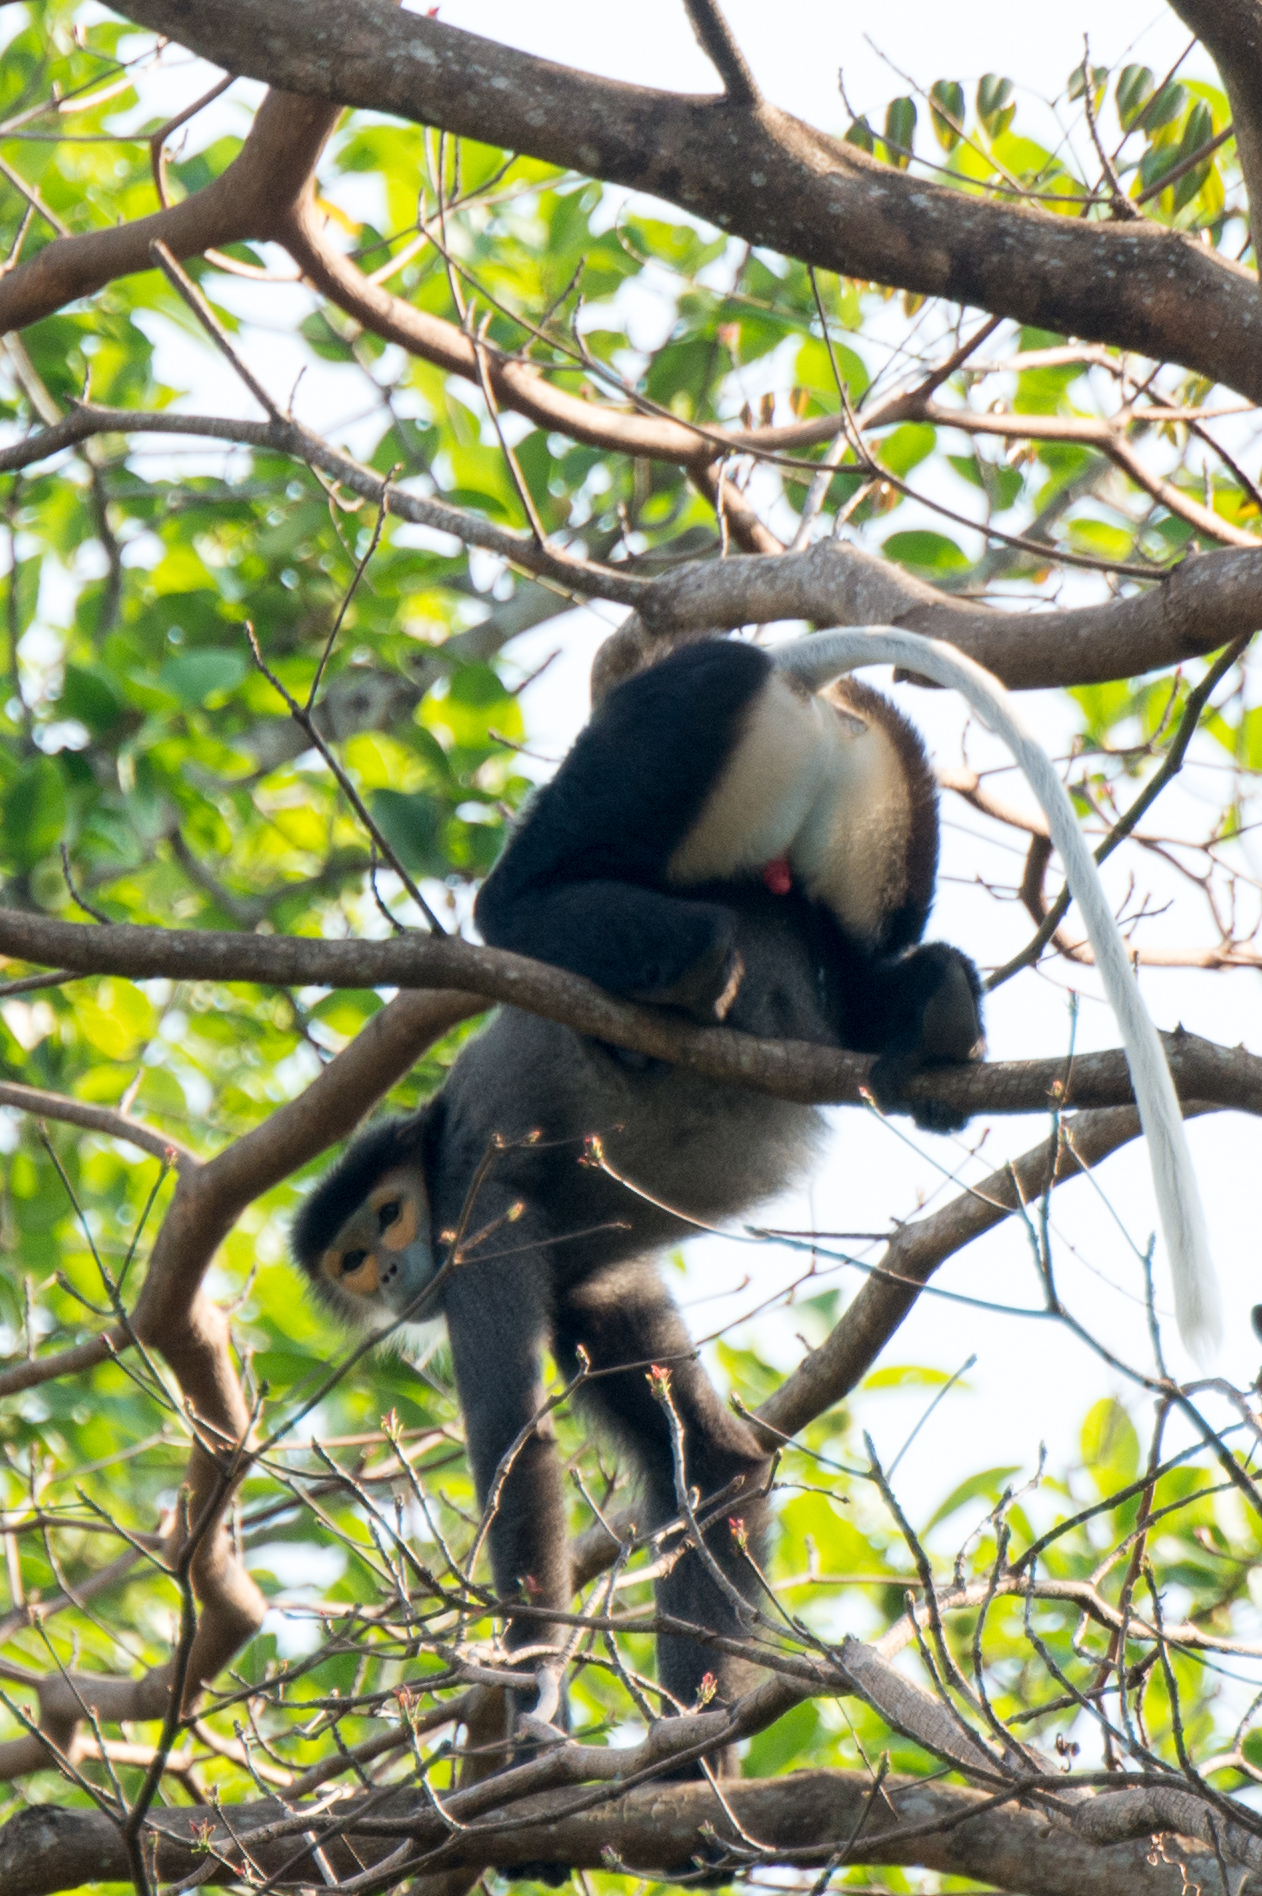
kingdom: Animalia
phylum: Chordata
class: Mammalia
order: Primates
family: Cercopithecidae
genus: Pygathrix
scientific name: Pygathrix nigripes
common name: Black-shanked douc
